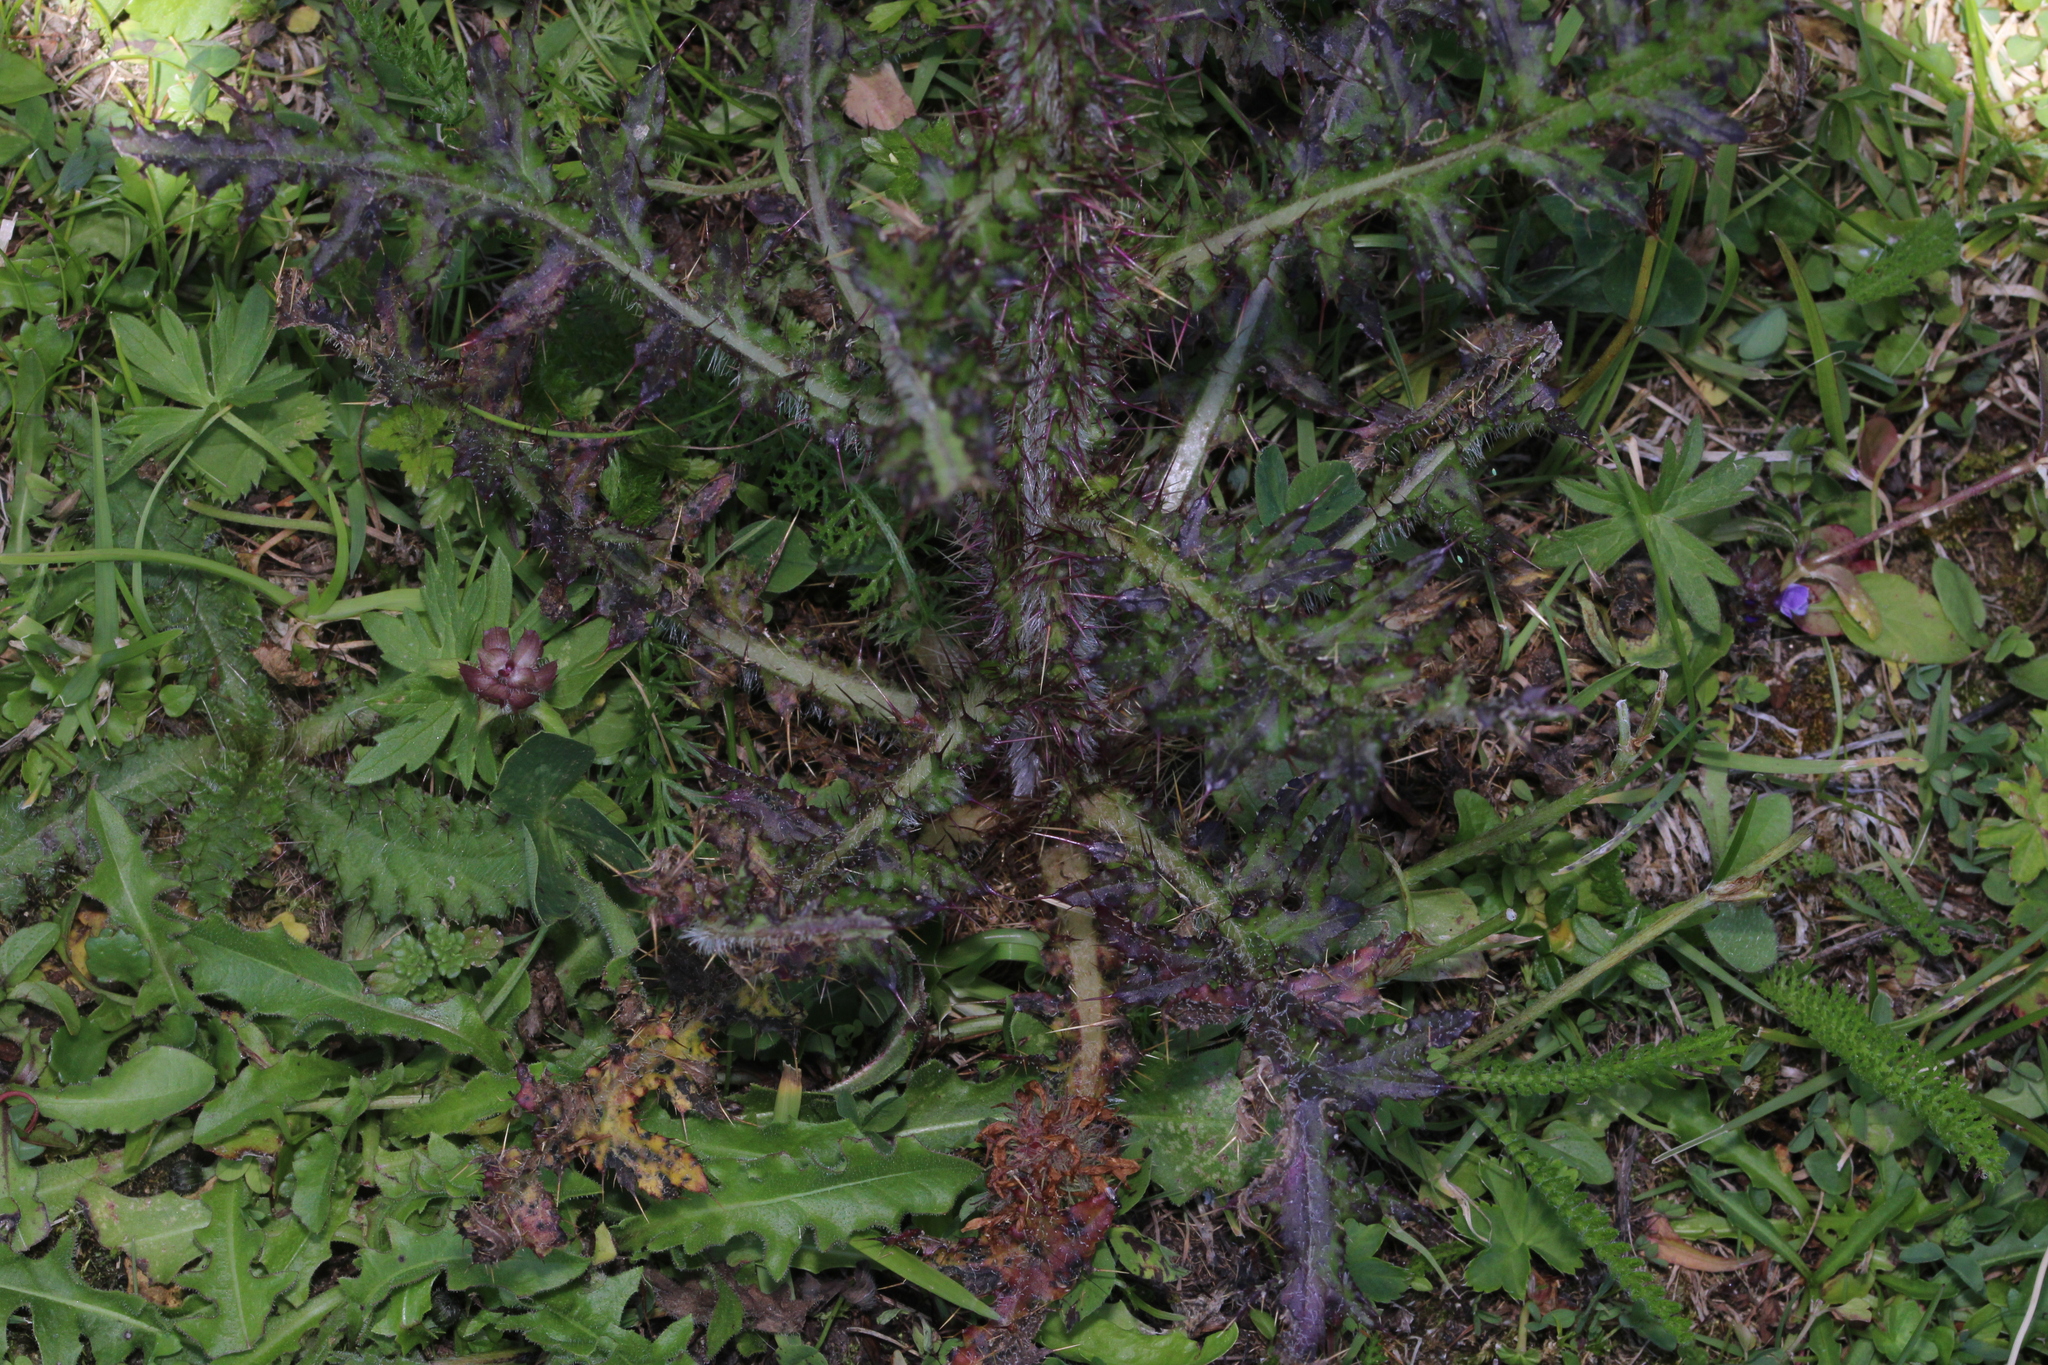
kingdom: Plantae
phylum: Tracheophyta
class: Magnoliopsida
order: Asterales
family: Asteraceae
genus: Cirsium
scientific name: Cirsium palustre
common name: Marsh thistle
